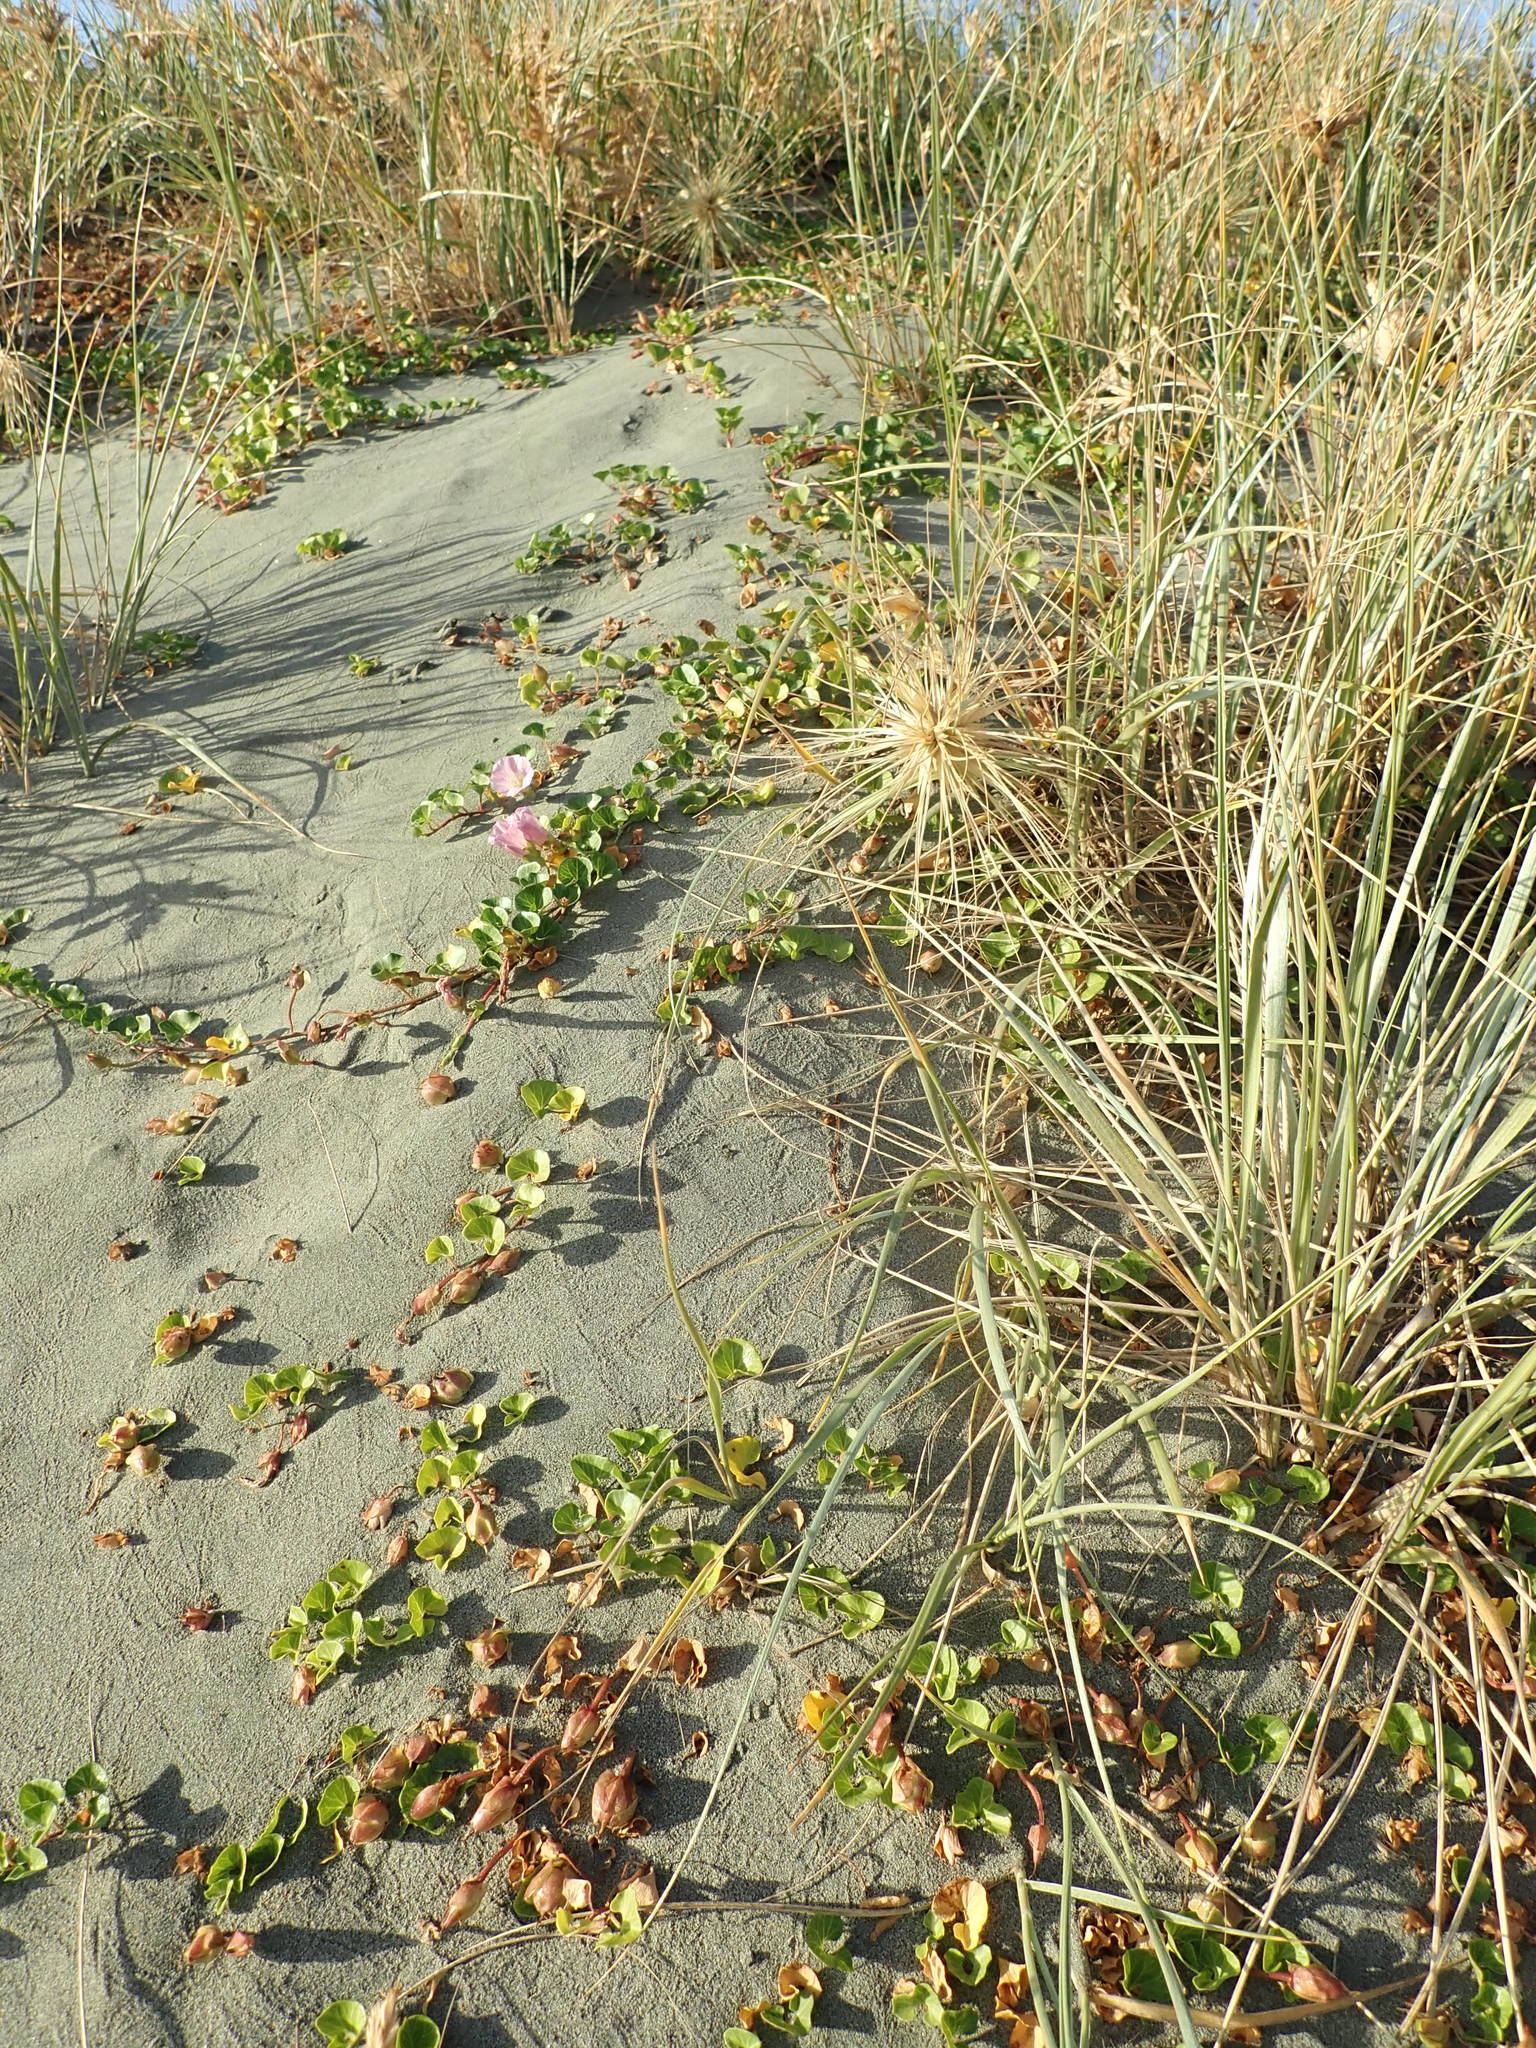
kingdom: Plantae
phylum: Tracheophyta
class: Magnoliopsida
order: Solanales
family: Convolvulaceae
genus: Calystegia
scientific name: Calystegia soldanella
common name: Sea bindweed
